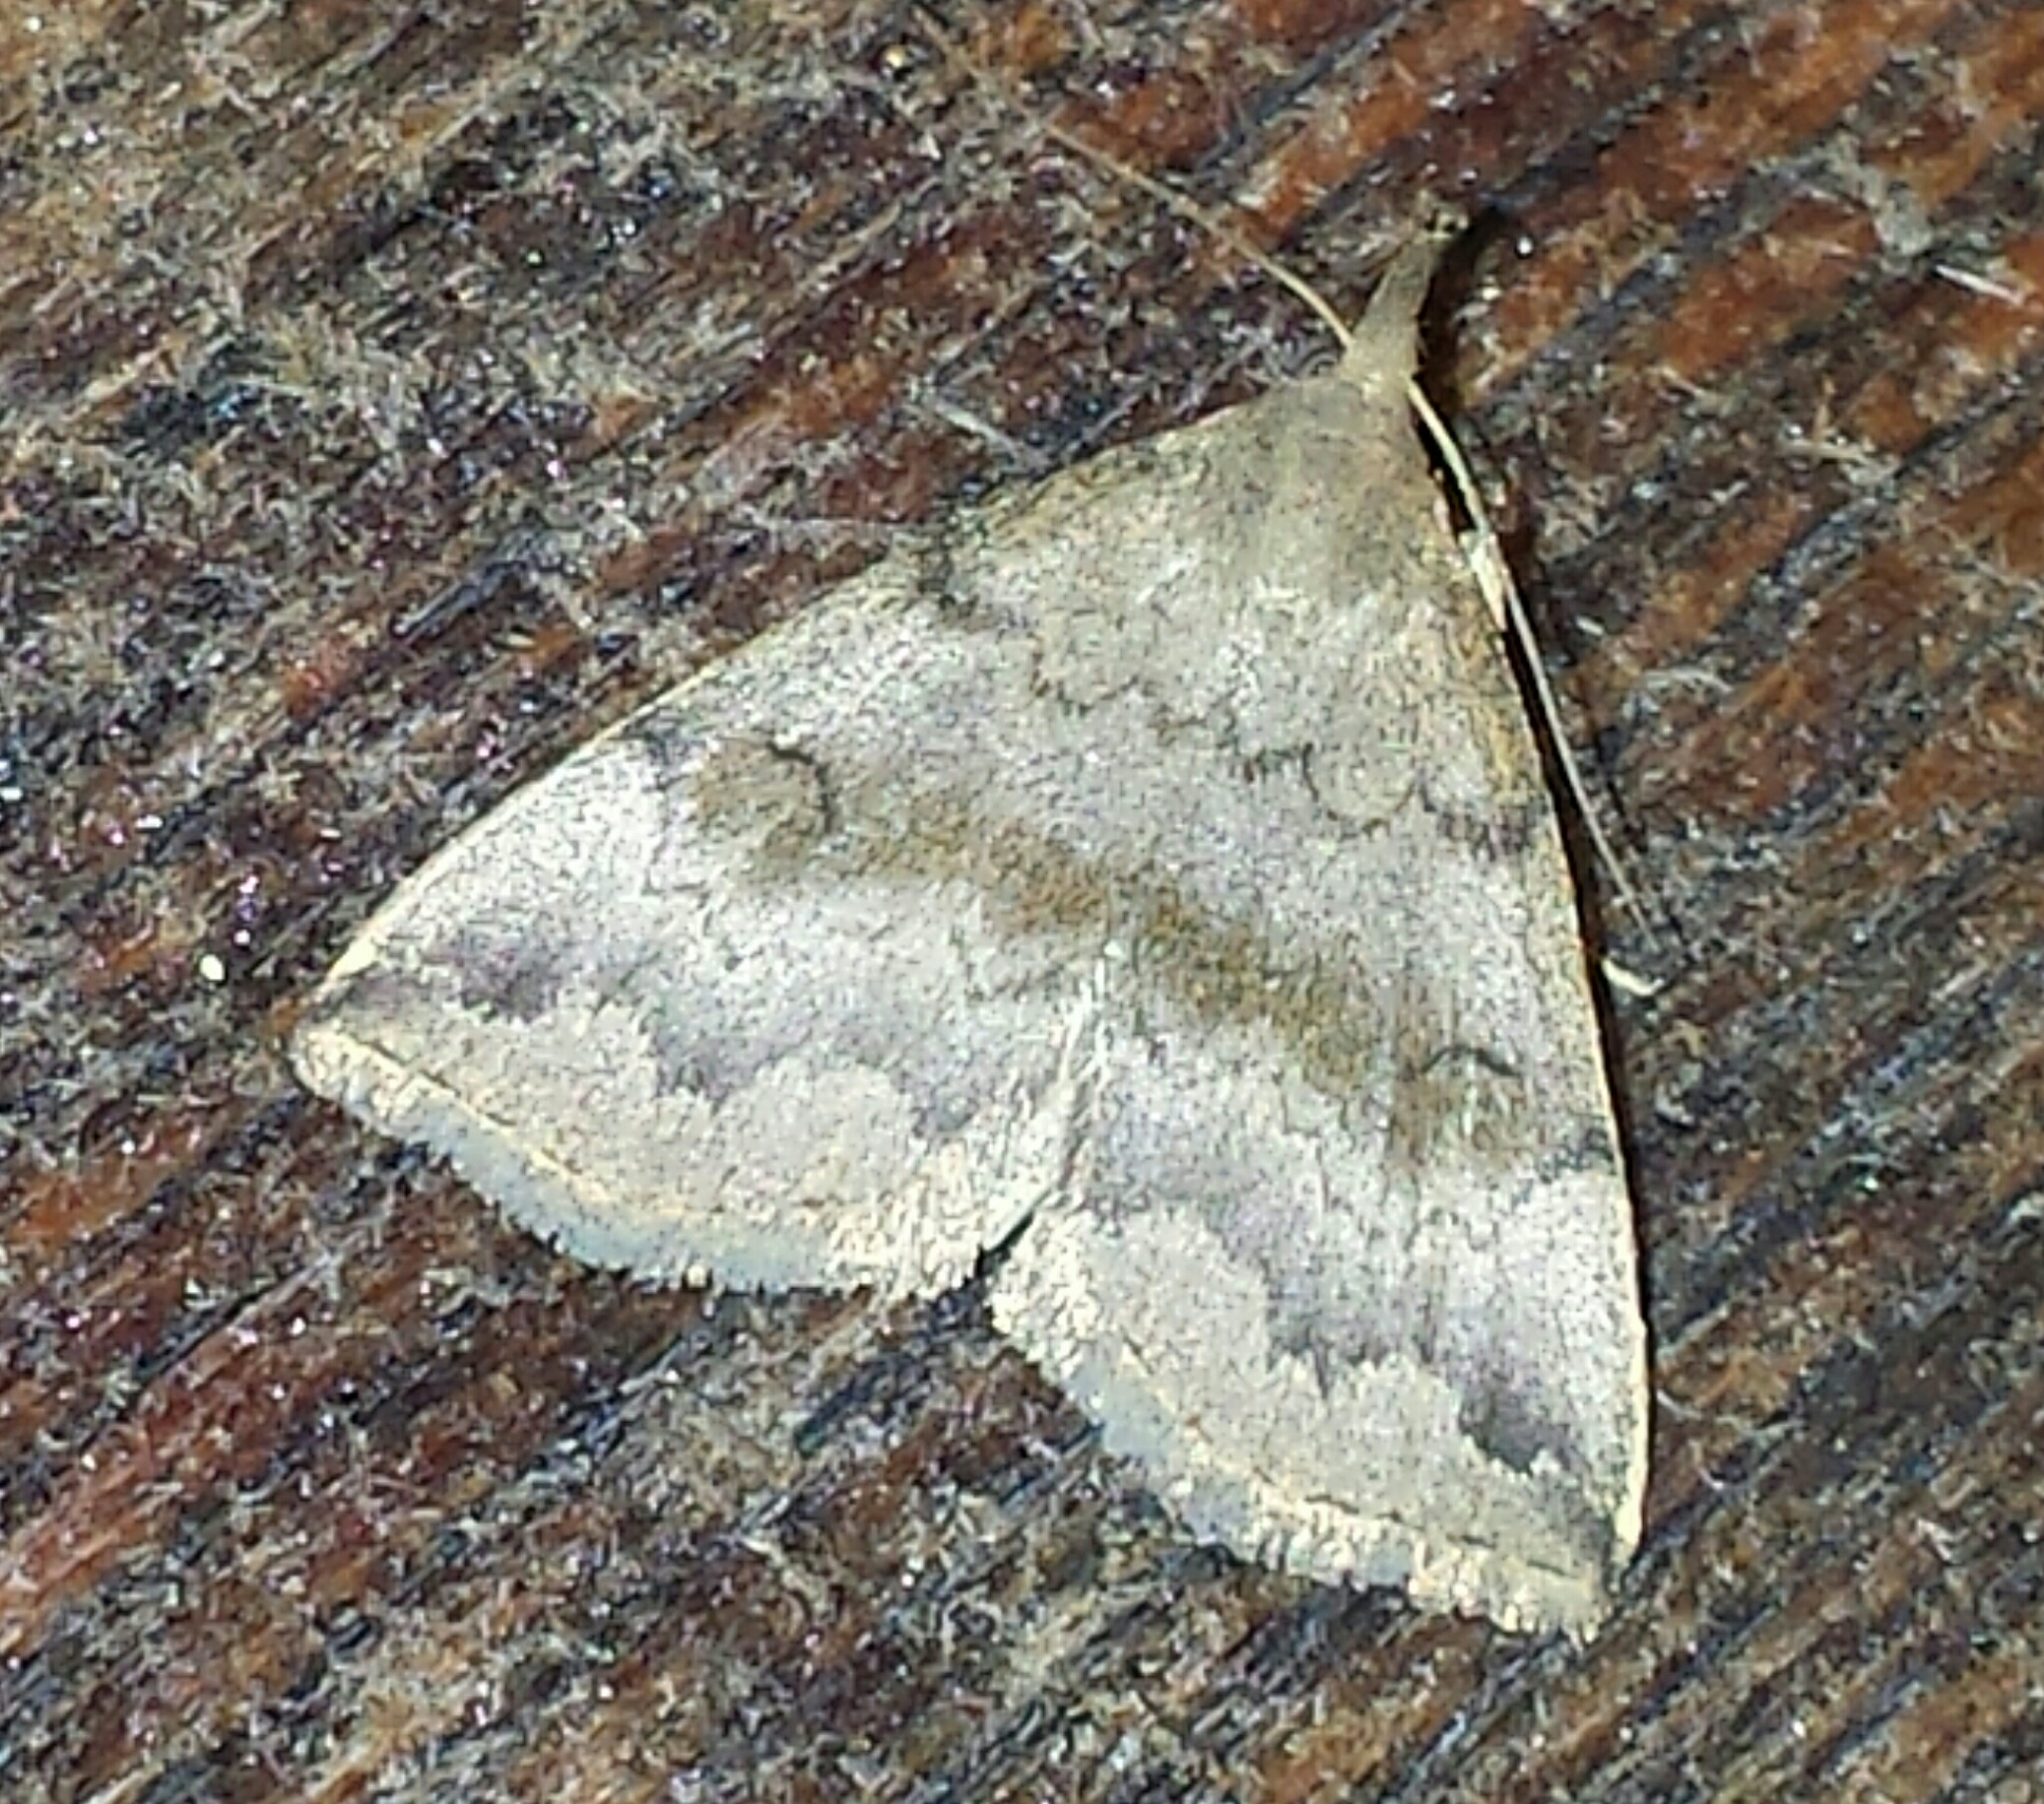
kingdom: Animalia
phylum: Arthropoda
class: Insecta
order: Lepidoptera
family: Erebidae
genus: Phalaenostola
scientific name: Phalaenostola eumelusalis
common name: Dark phalaenostola moth
